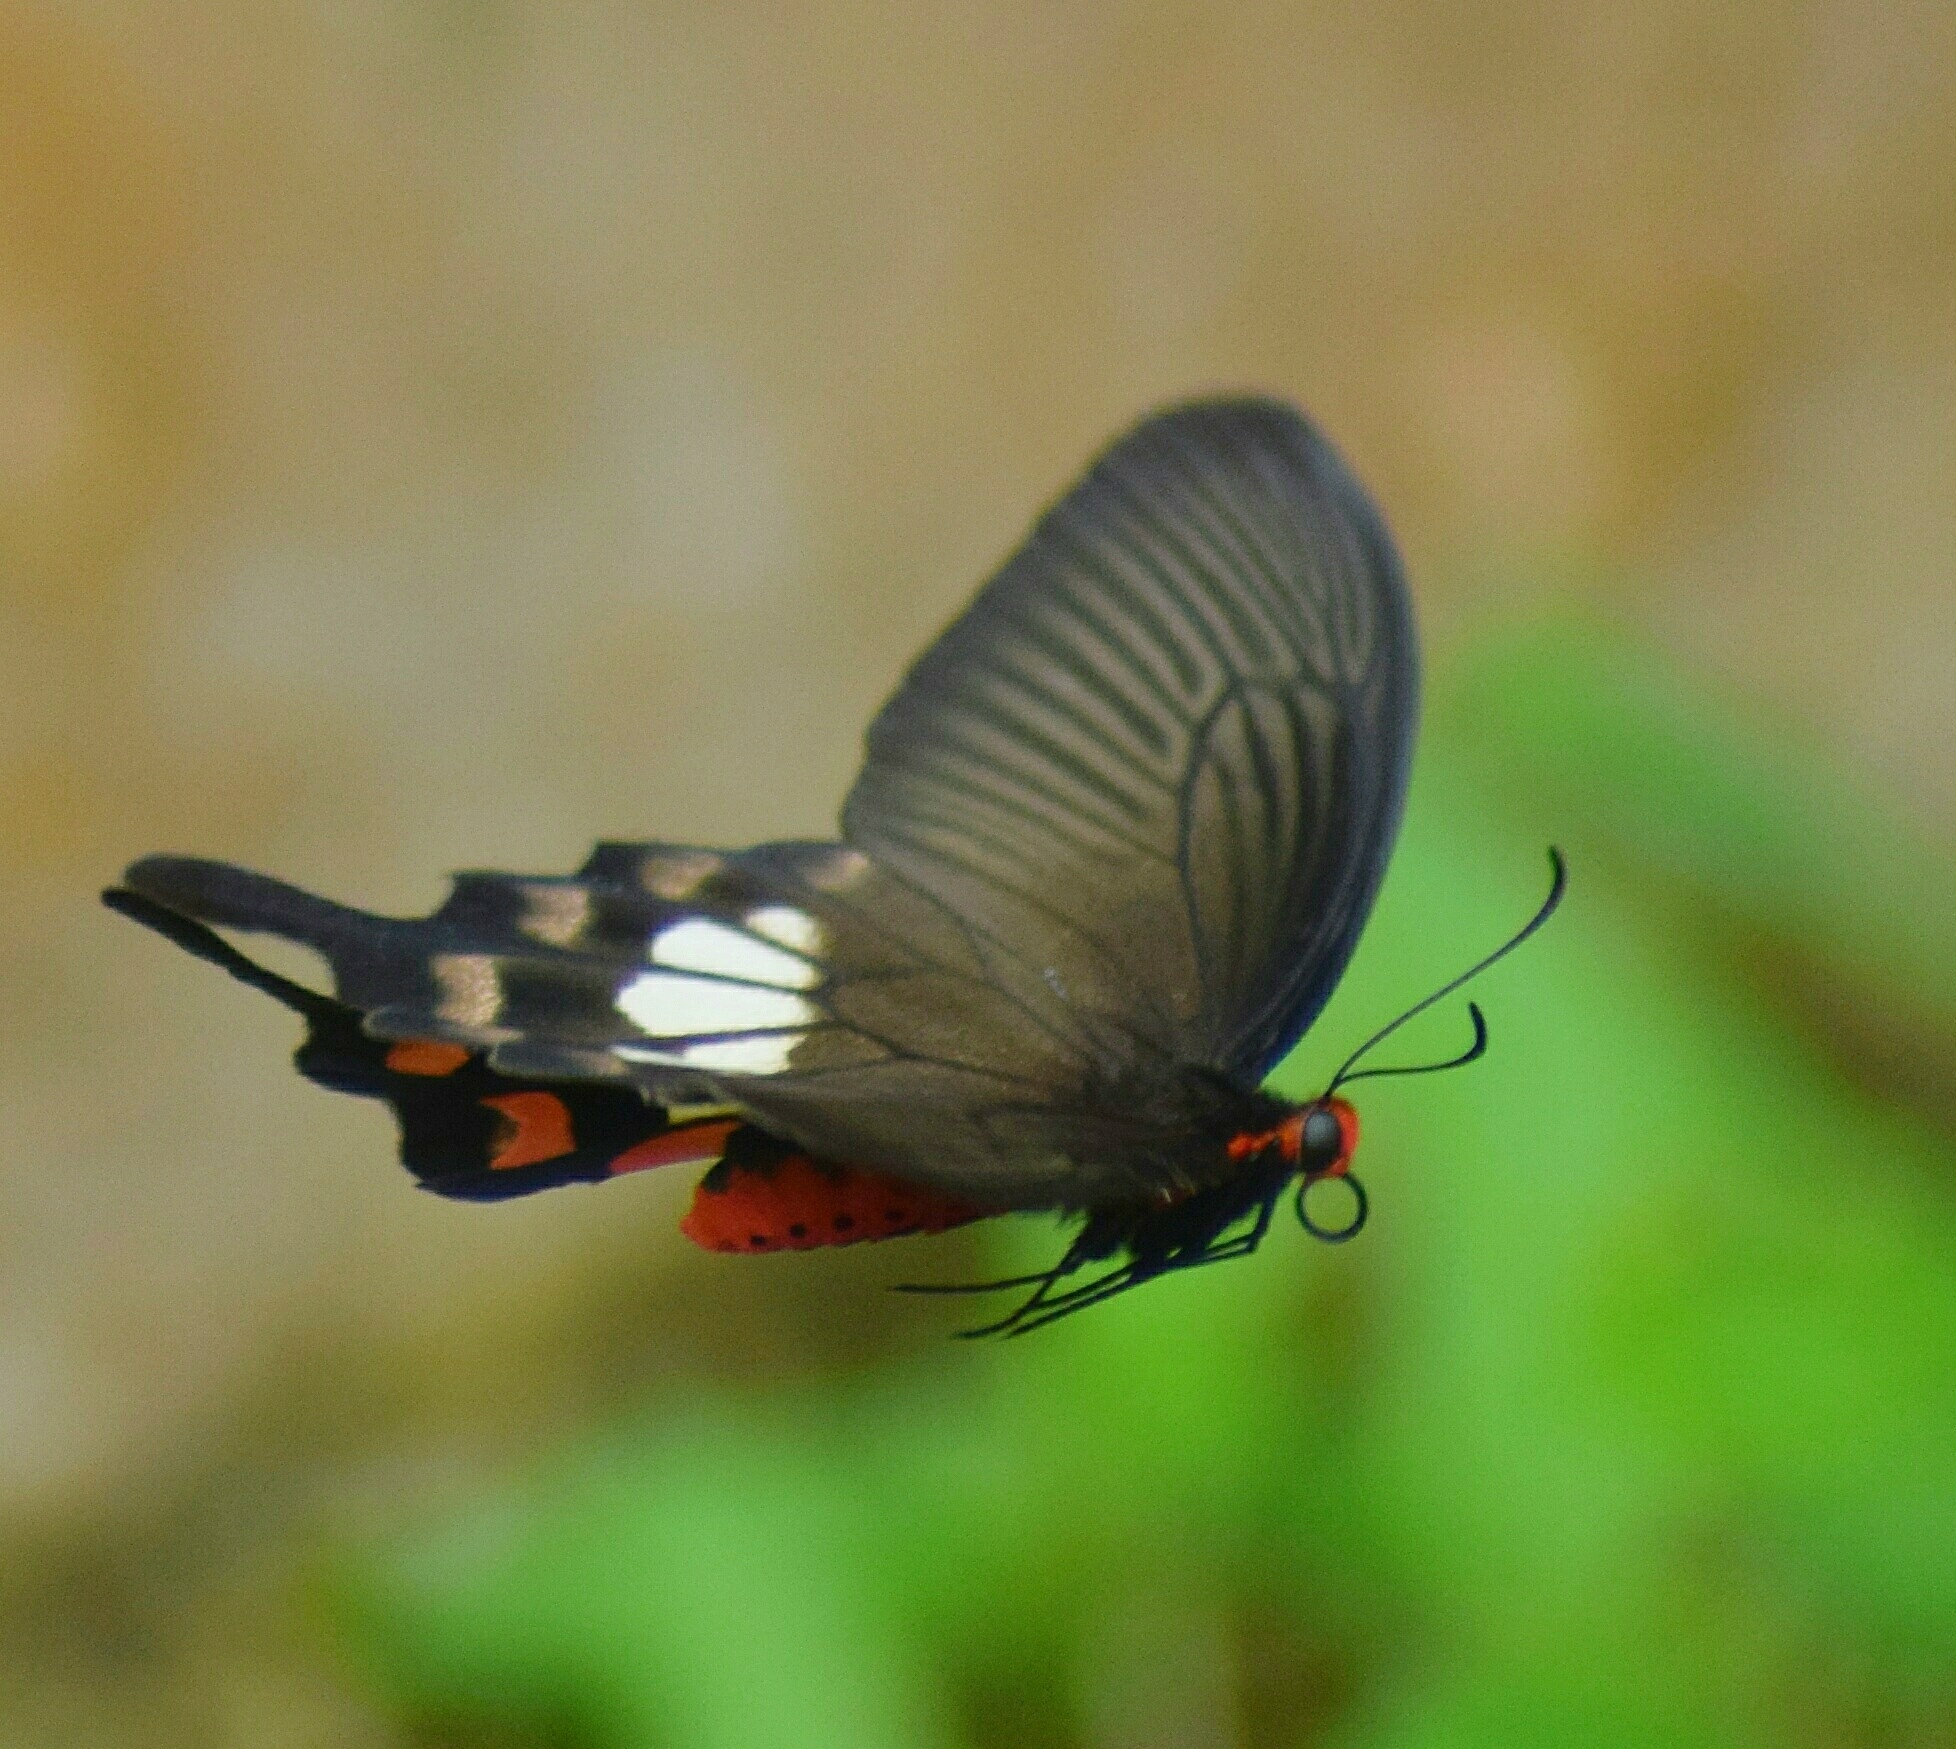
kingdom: Animalia
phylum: Arthropoda
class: Insecta
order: Lepidoptera
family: Papilionidae
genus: Pachliopta
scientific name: Pachliopta aristolochiae
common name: Common rose
